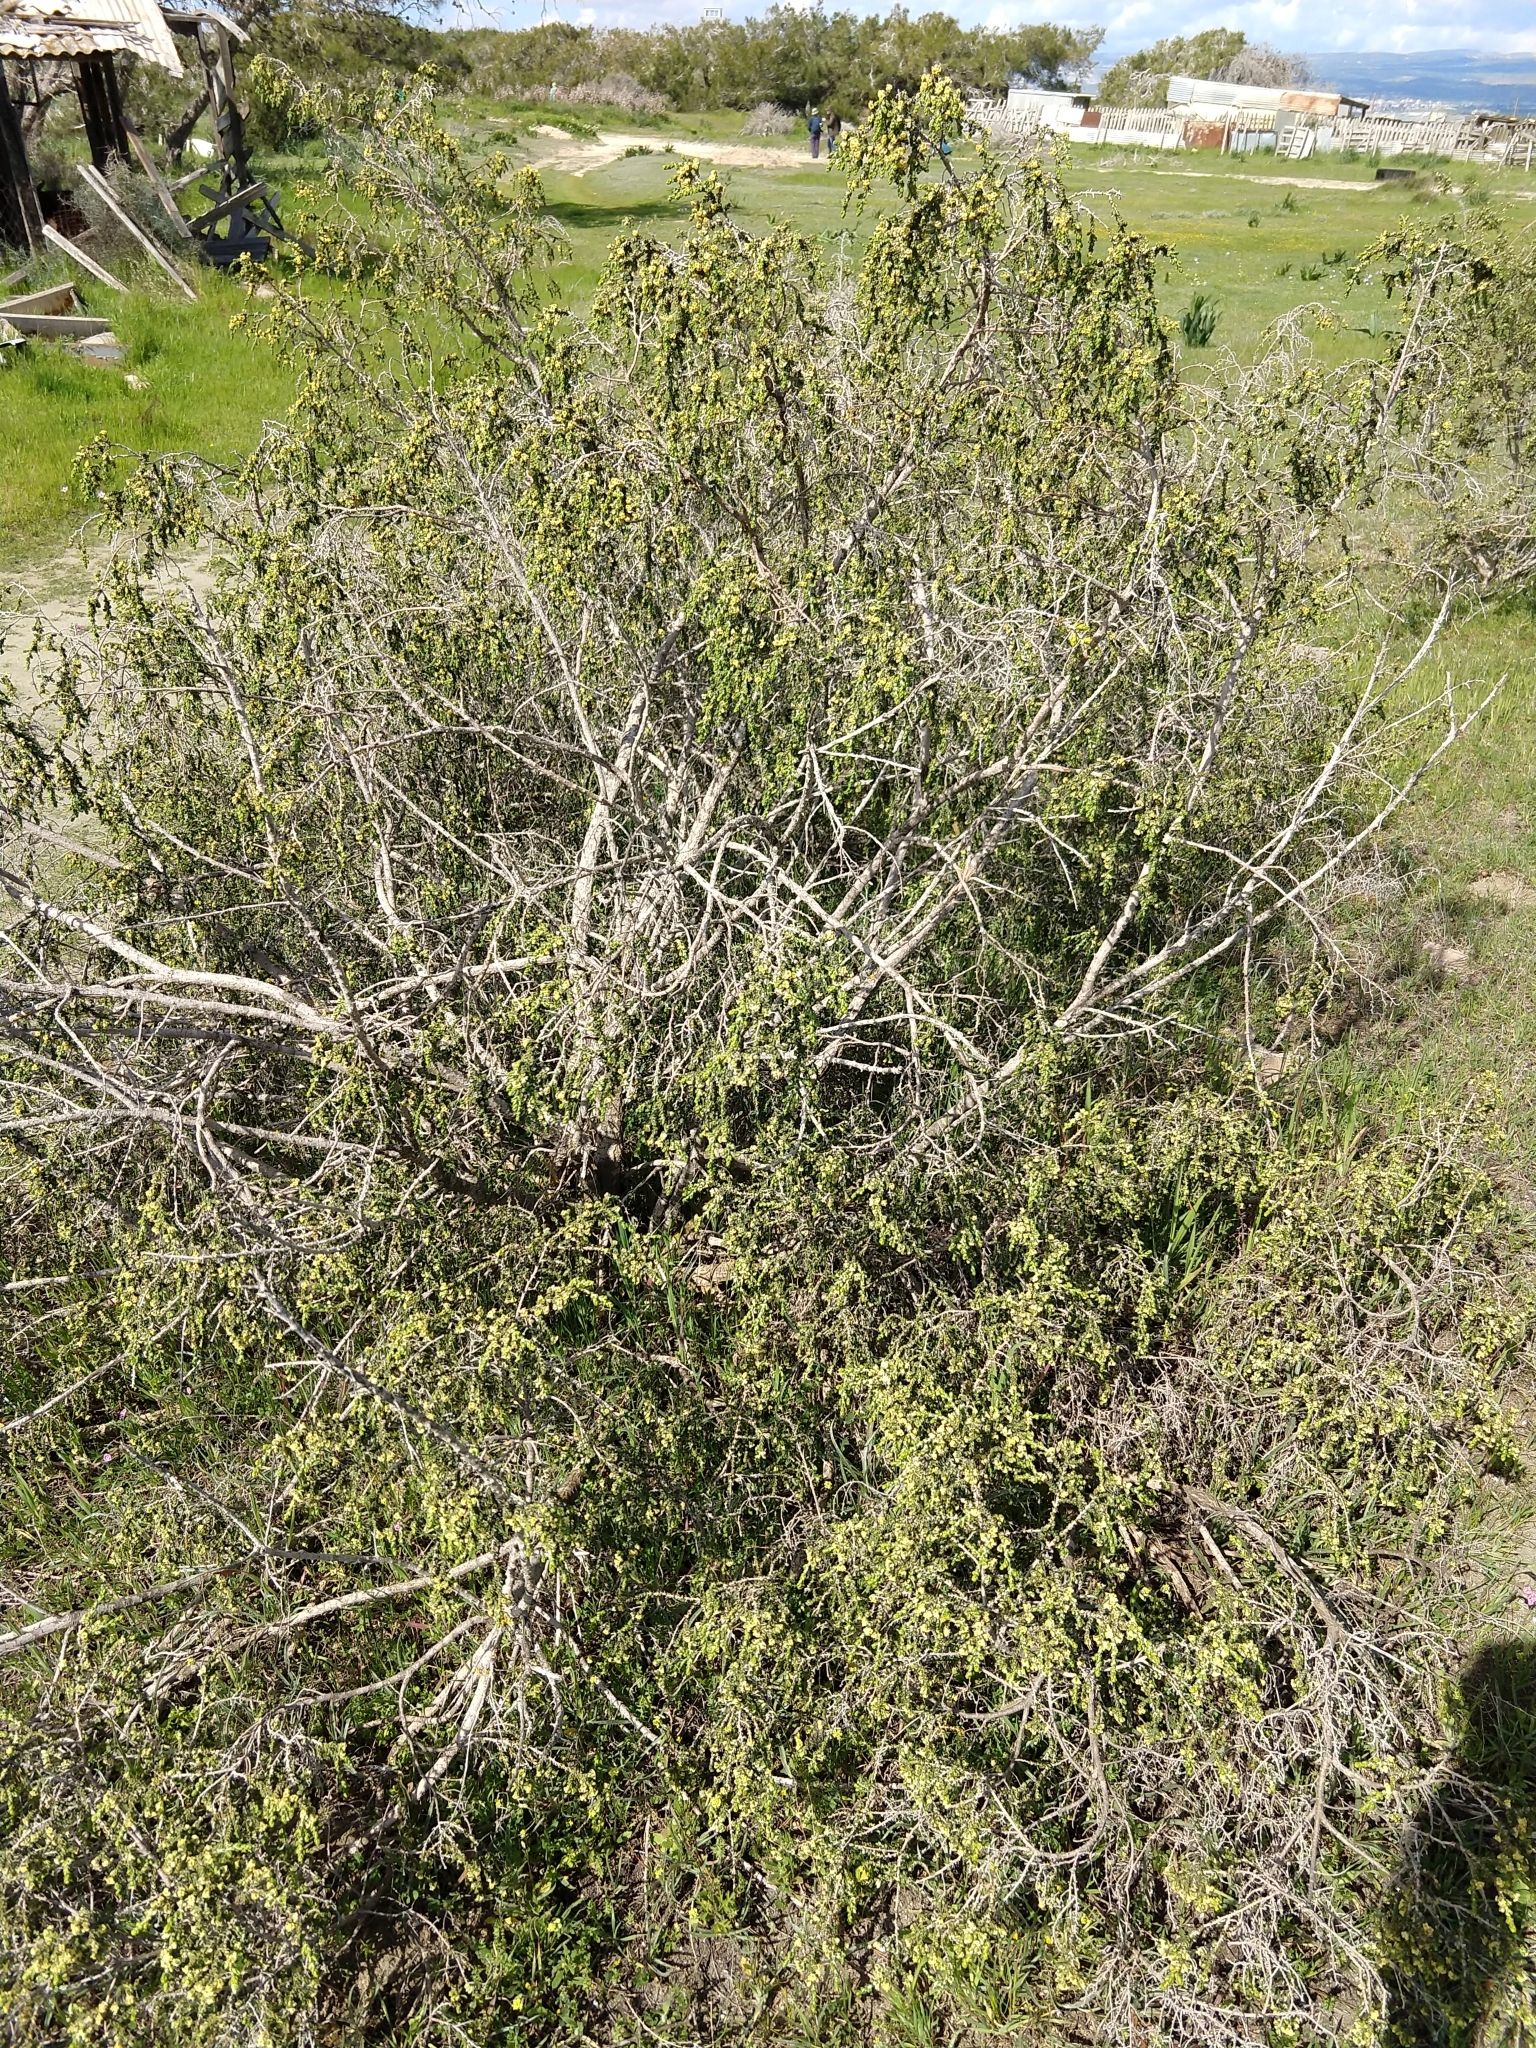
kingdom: Plantae
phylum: Tracheophyta
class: Magnoliopsida
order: Malvales
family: Thymelaeaceae
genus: Thymelaea
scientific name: Thymelaea hirsuta
